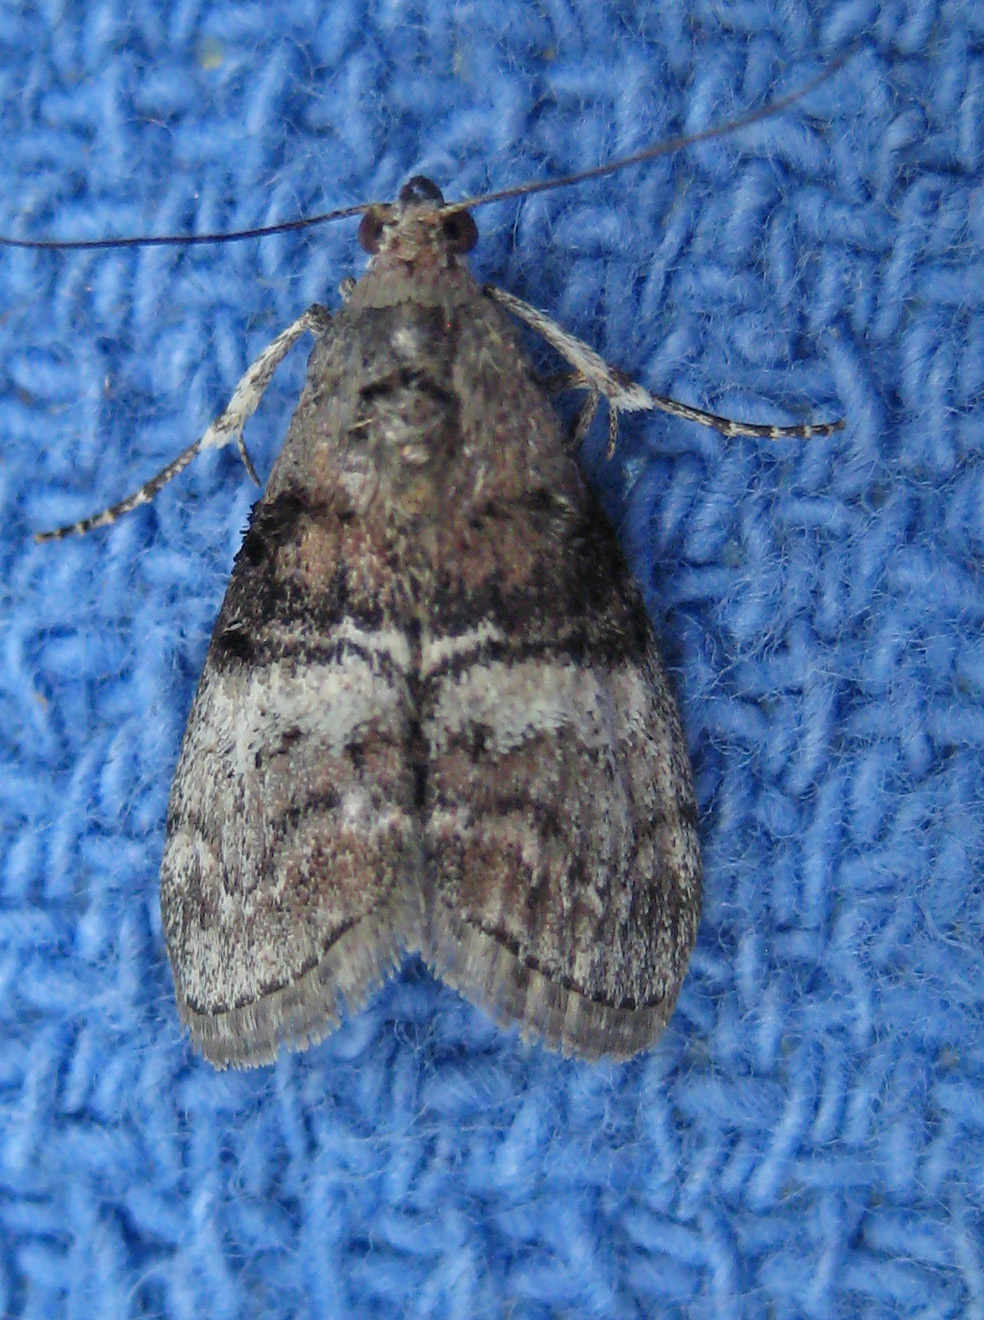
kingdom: Animalia
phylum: Arthropoda
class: Insecta
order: Lepidoptera
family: Pyralidae
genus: Pococera
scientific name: Pococera asperatella
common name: Maple webworm moth
